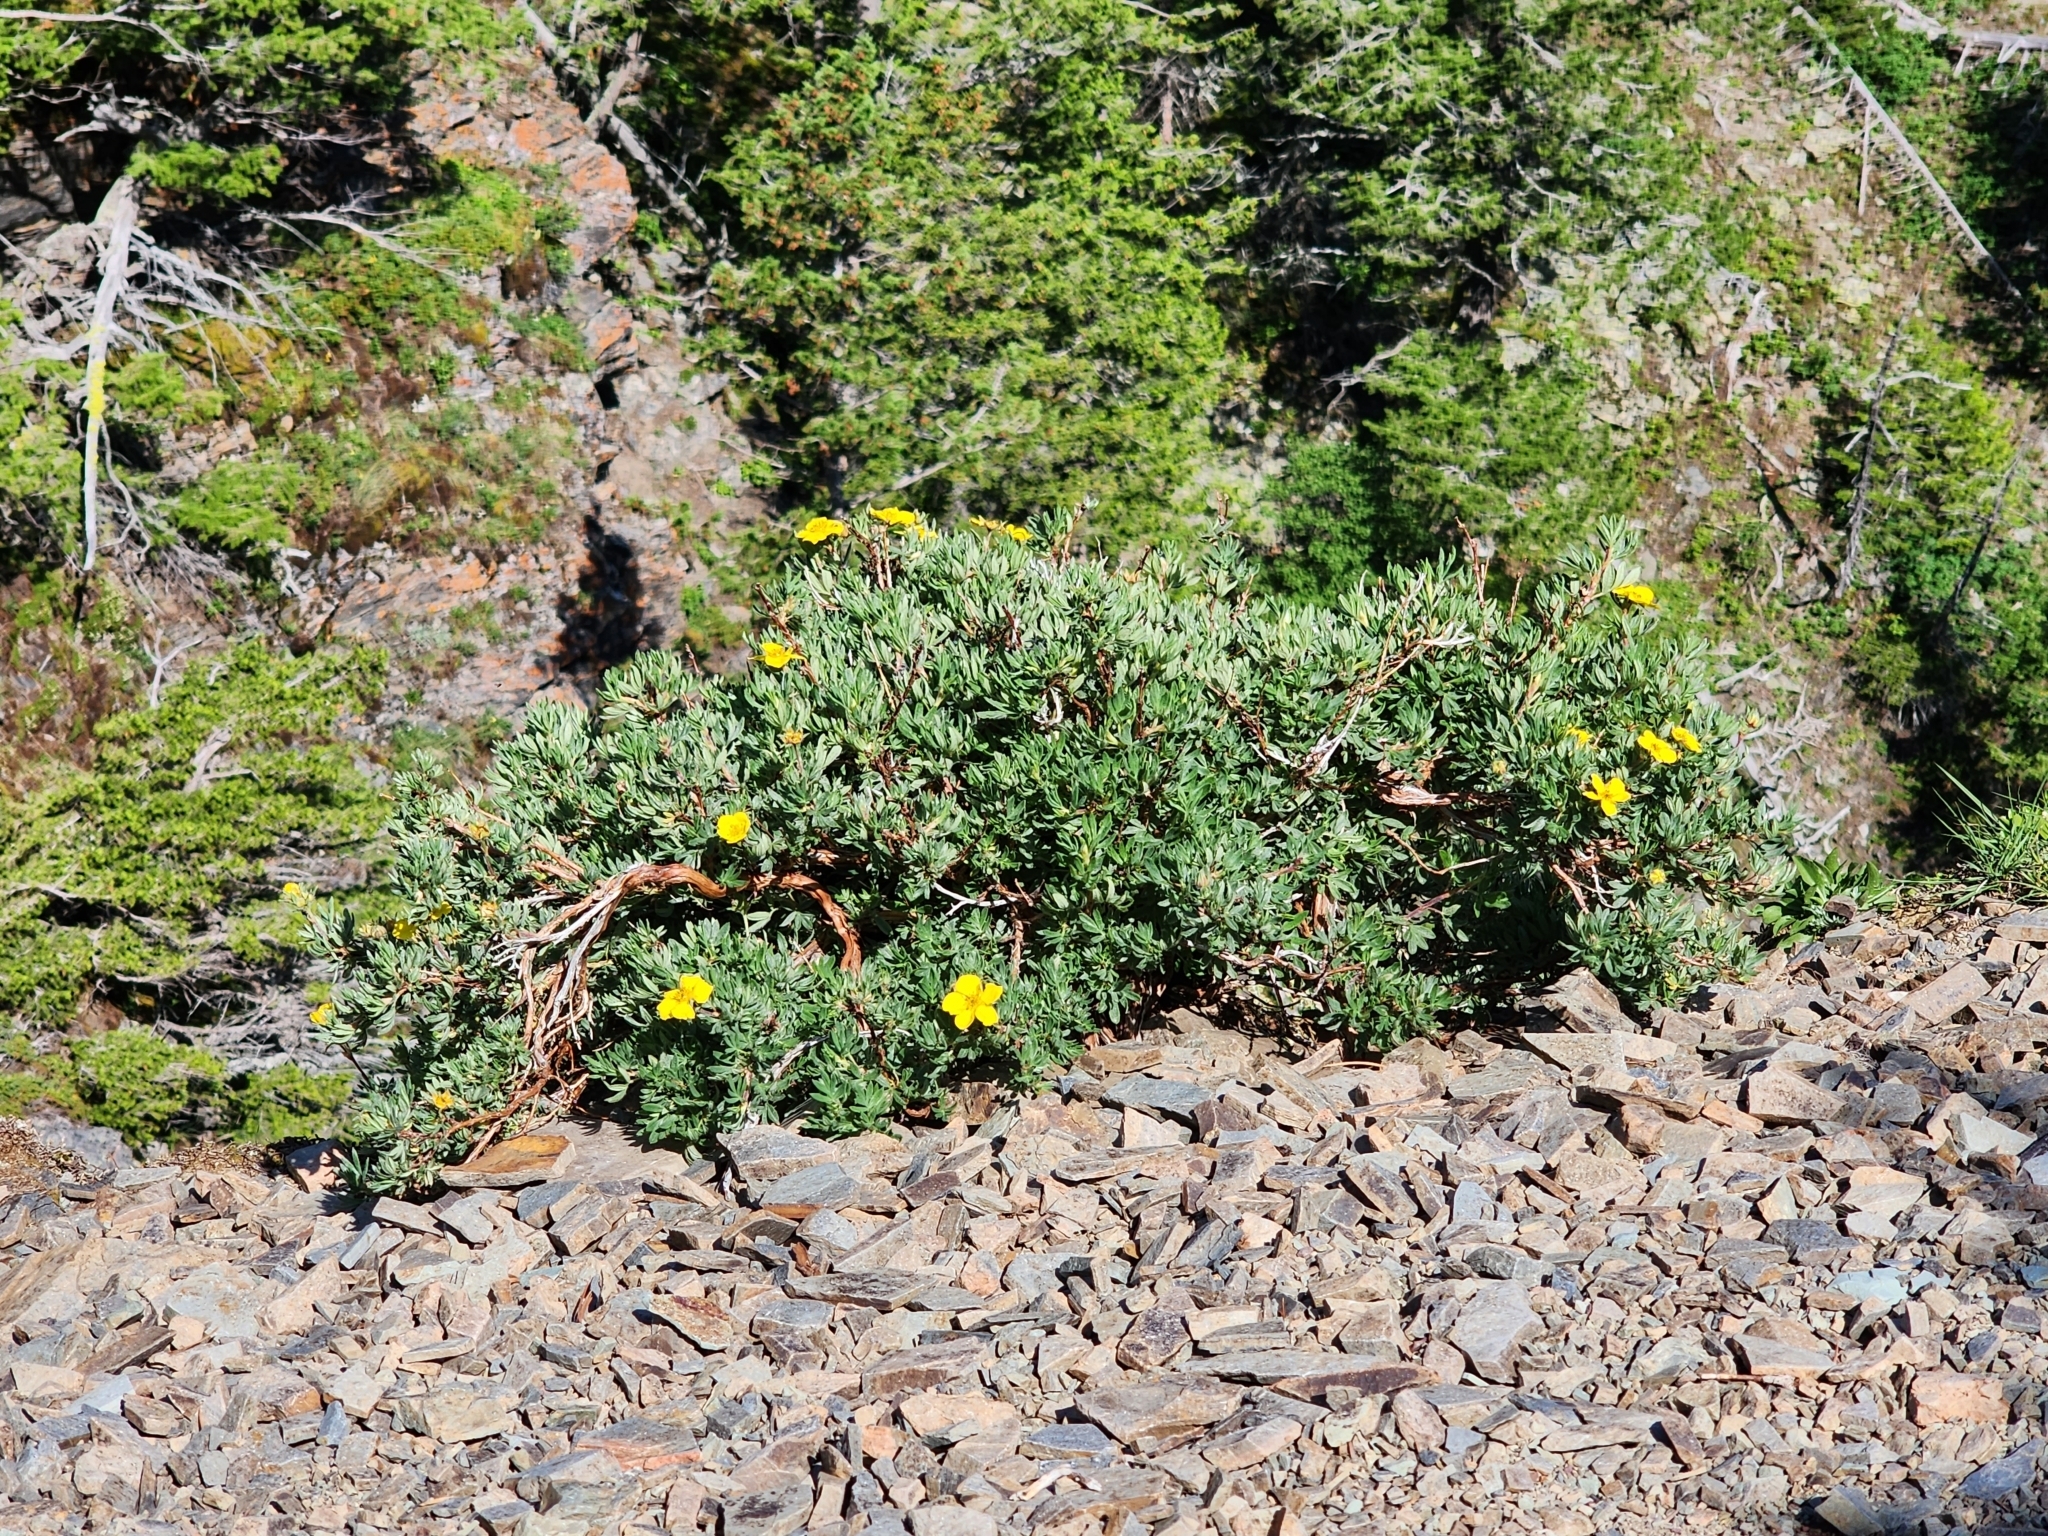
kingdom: Plantae
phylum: Tracheophyta
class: Magnoliopsida
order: Rosales
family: Rosaceae
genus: Dasiphora
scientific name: Dasiphora fruticosa
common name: Shrubby cinquefoil
